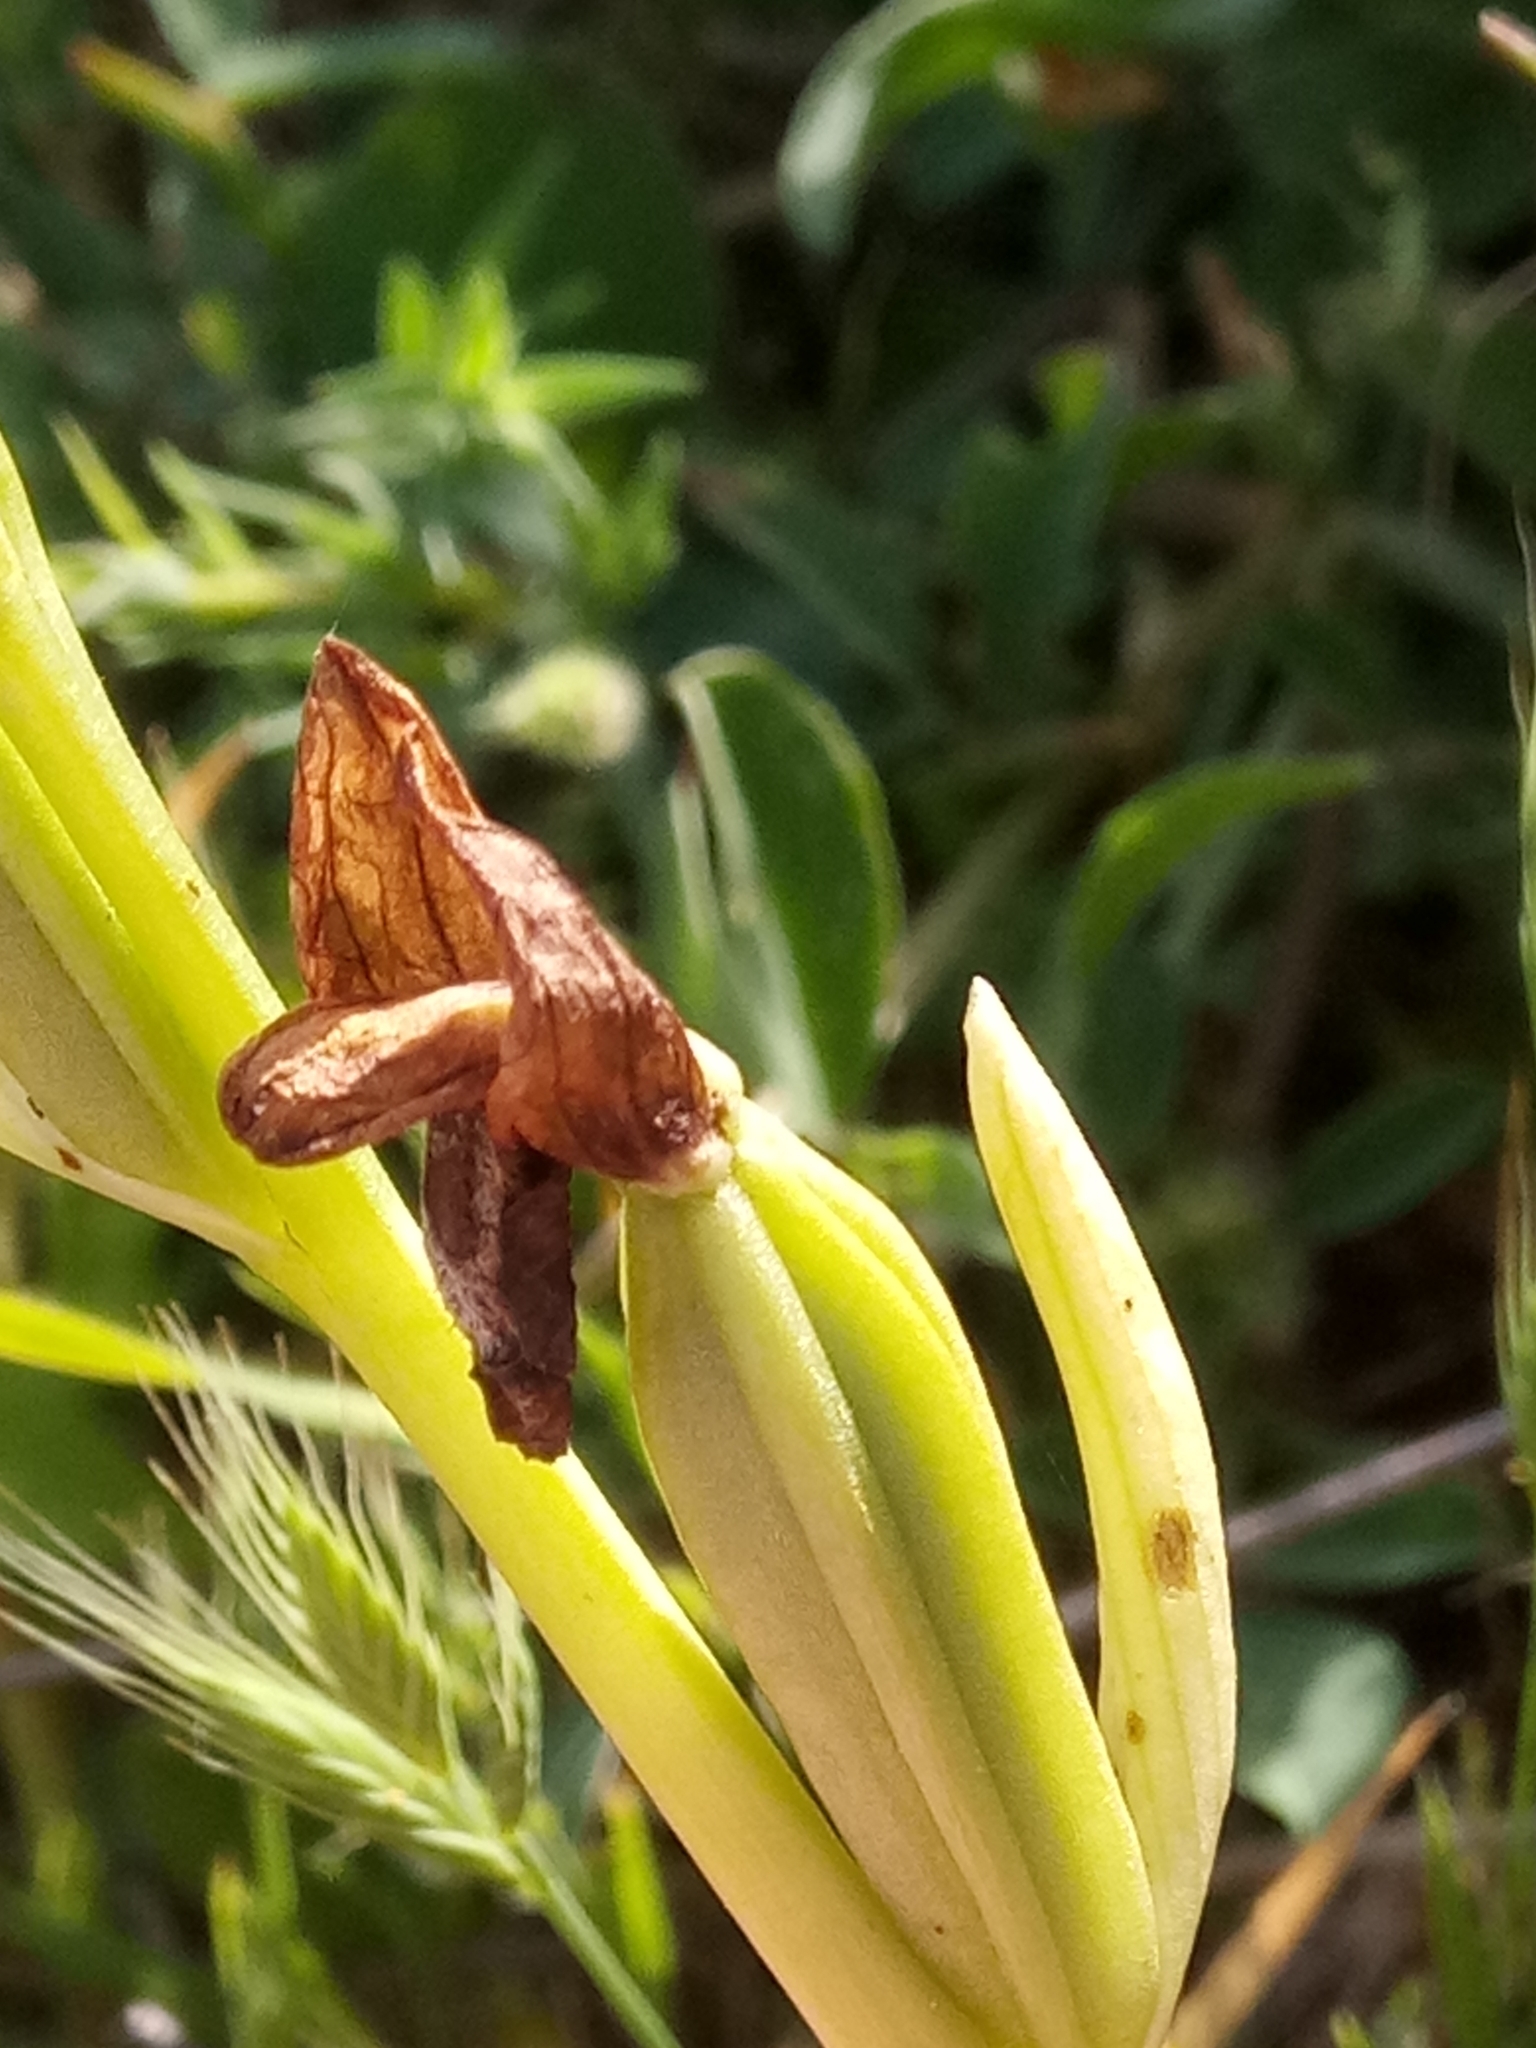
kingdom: Plantae
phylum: Tracheophyta
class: Liliopsida
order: Asparagales
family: Orchidaceae
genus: Ophrys
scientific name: Ophrys fusca
